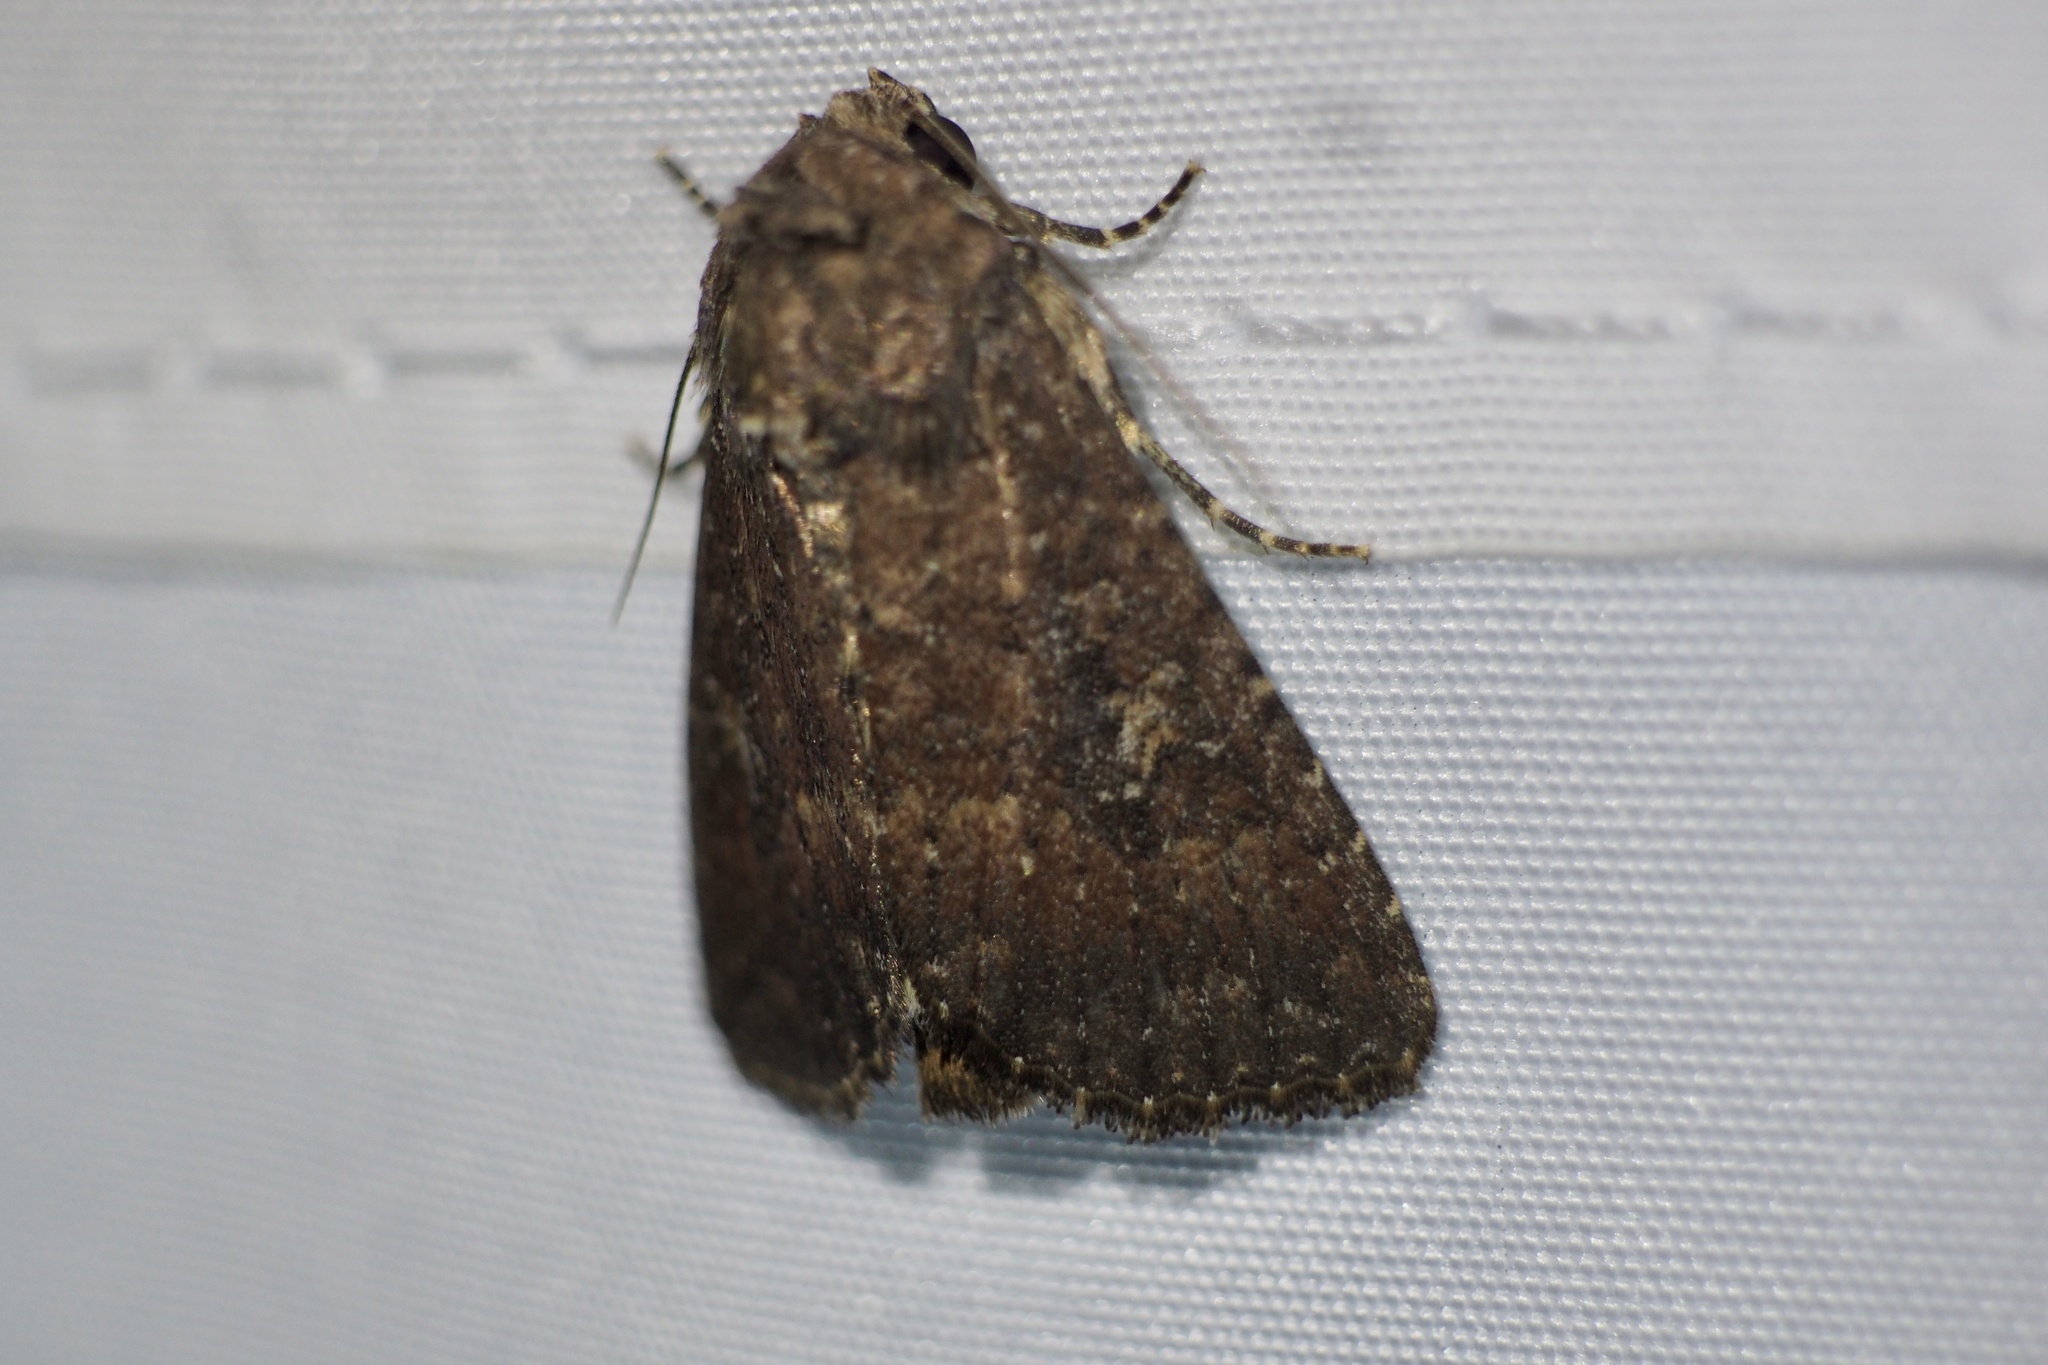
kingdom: Animalia
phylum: Arthropoda
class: Insecta
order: Lepidoptera
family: Noctuidae
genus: Condica
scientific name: Condica illecta
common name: Cutworm
